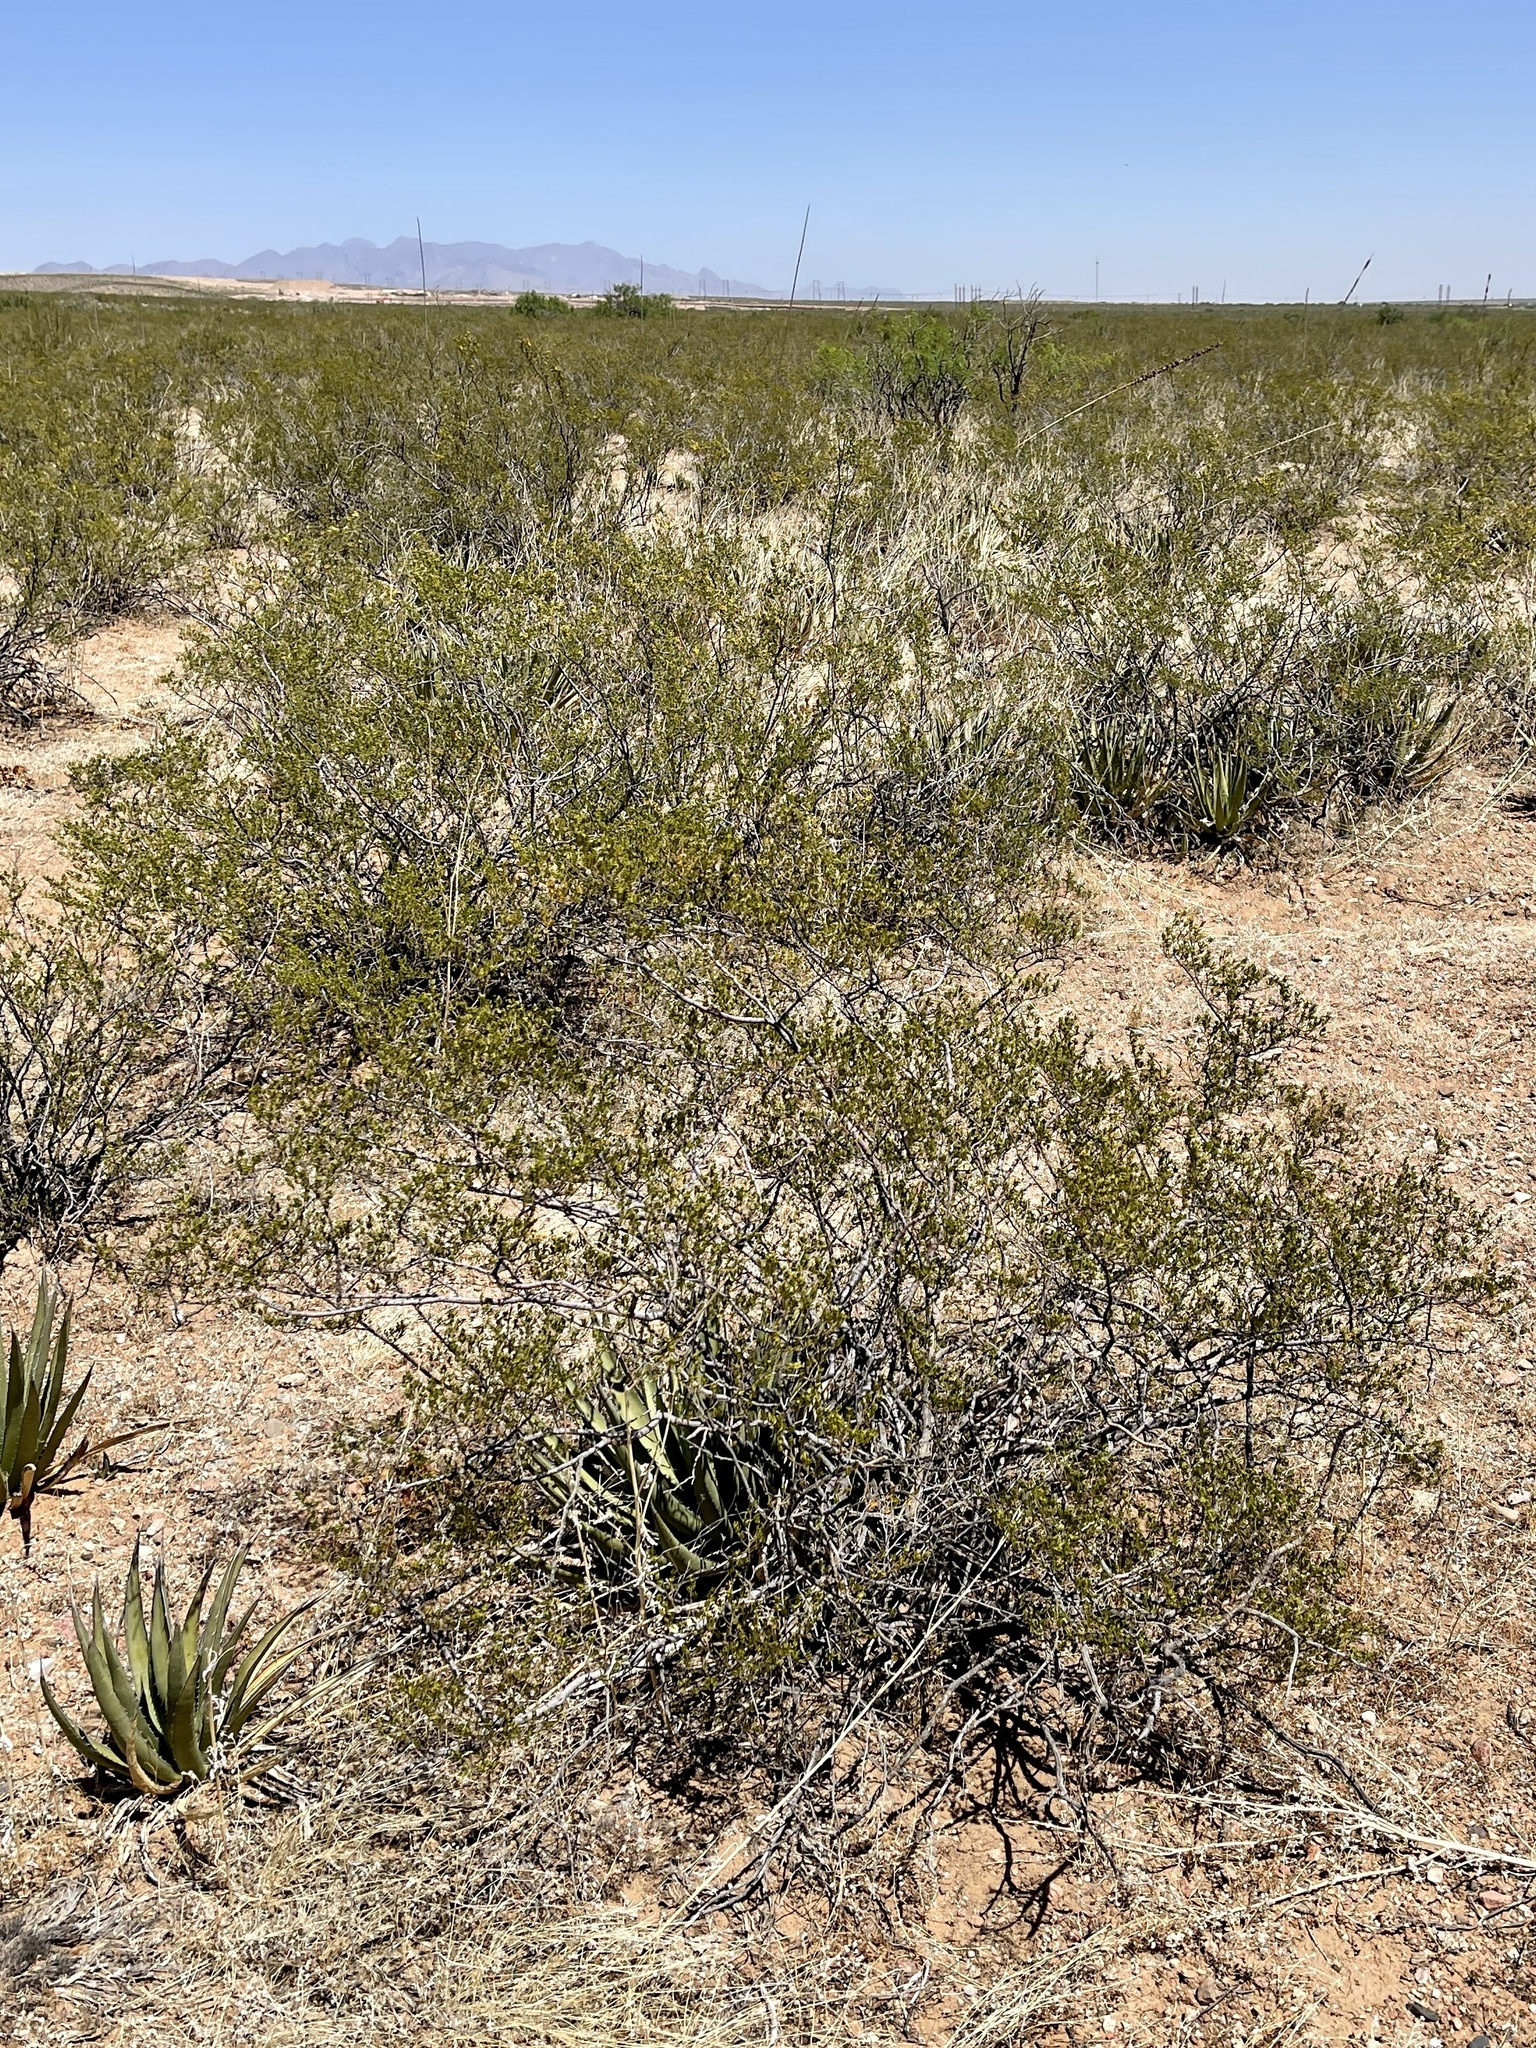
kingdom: Plantae
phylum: Tracheophyta
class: Magnoliopsida
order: Zygophyllales
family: Zygophyllaceae
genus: Larrea
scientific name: Larrea tridentata
